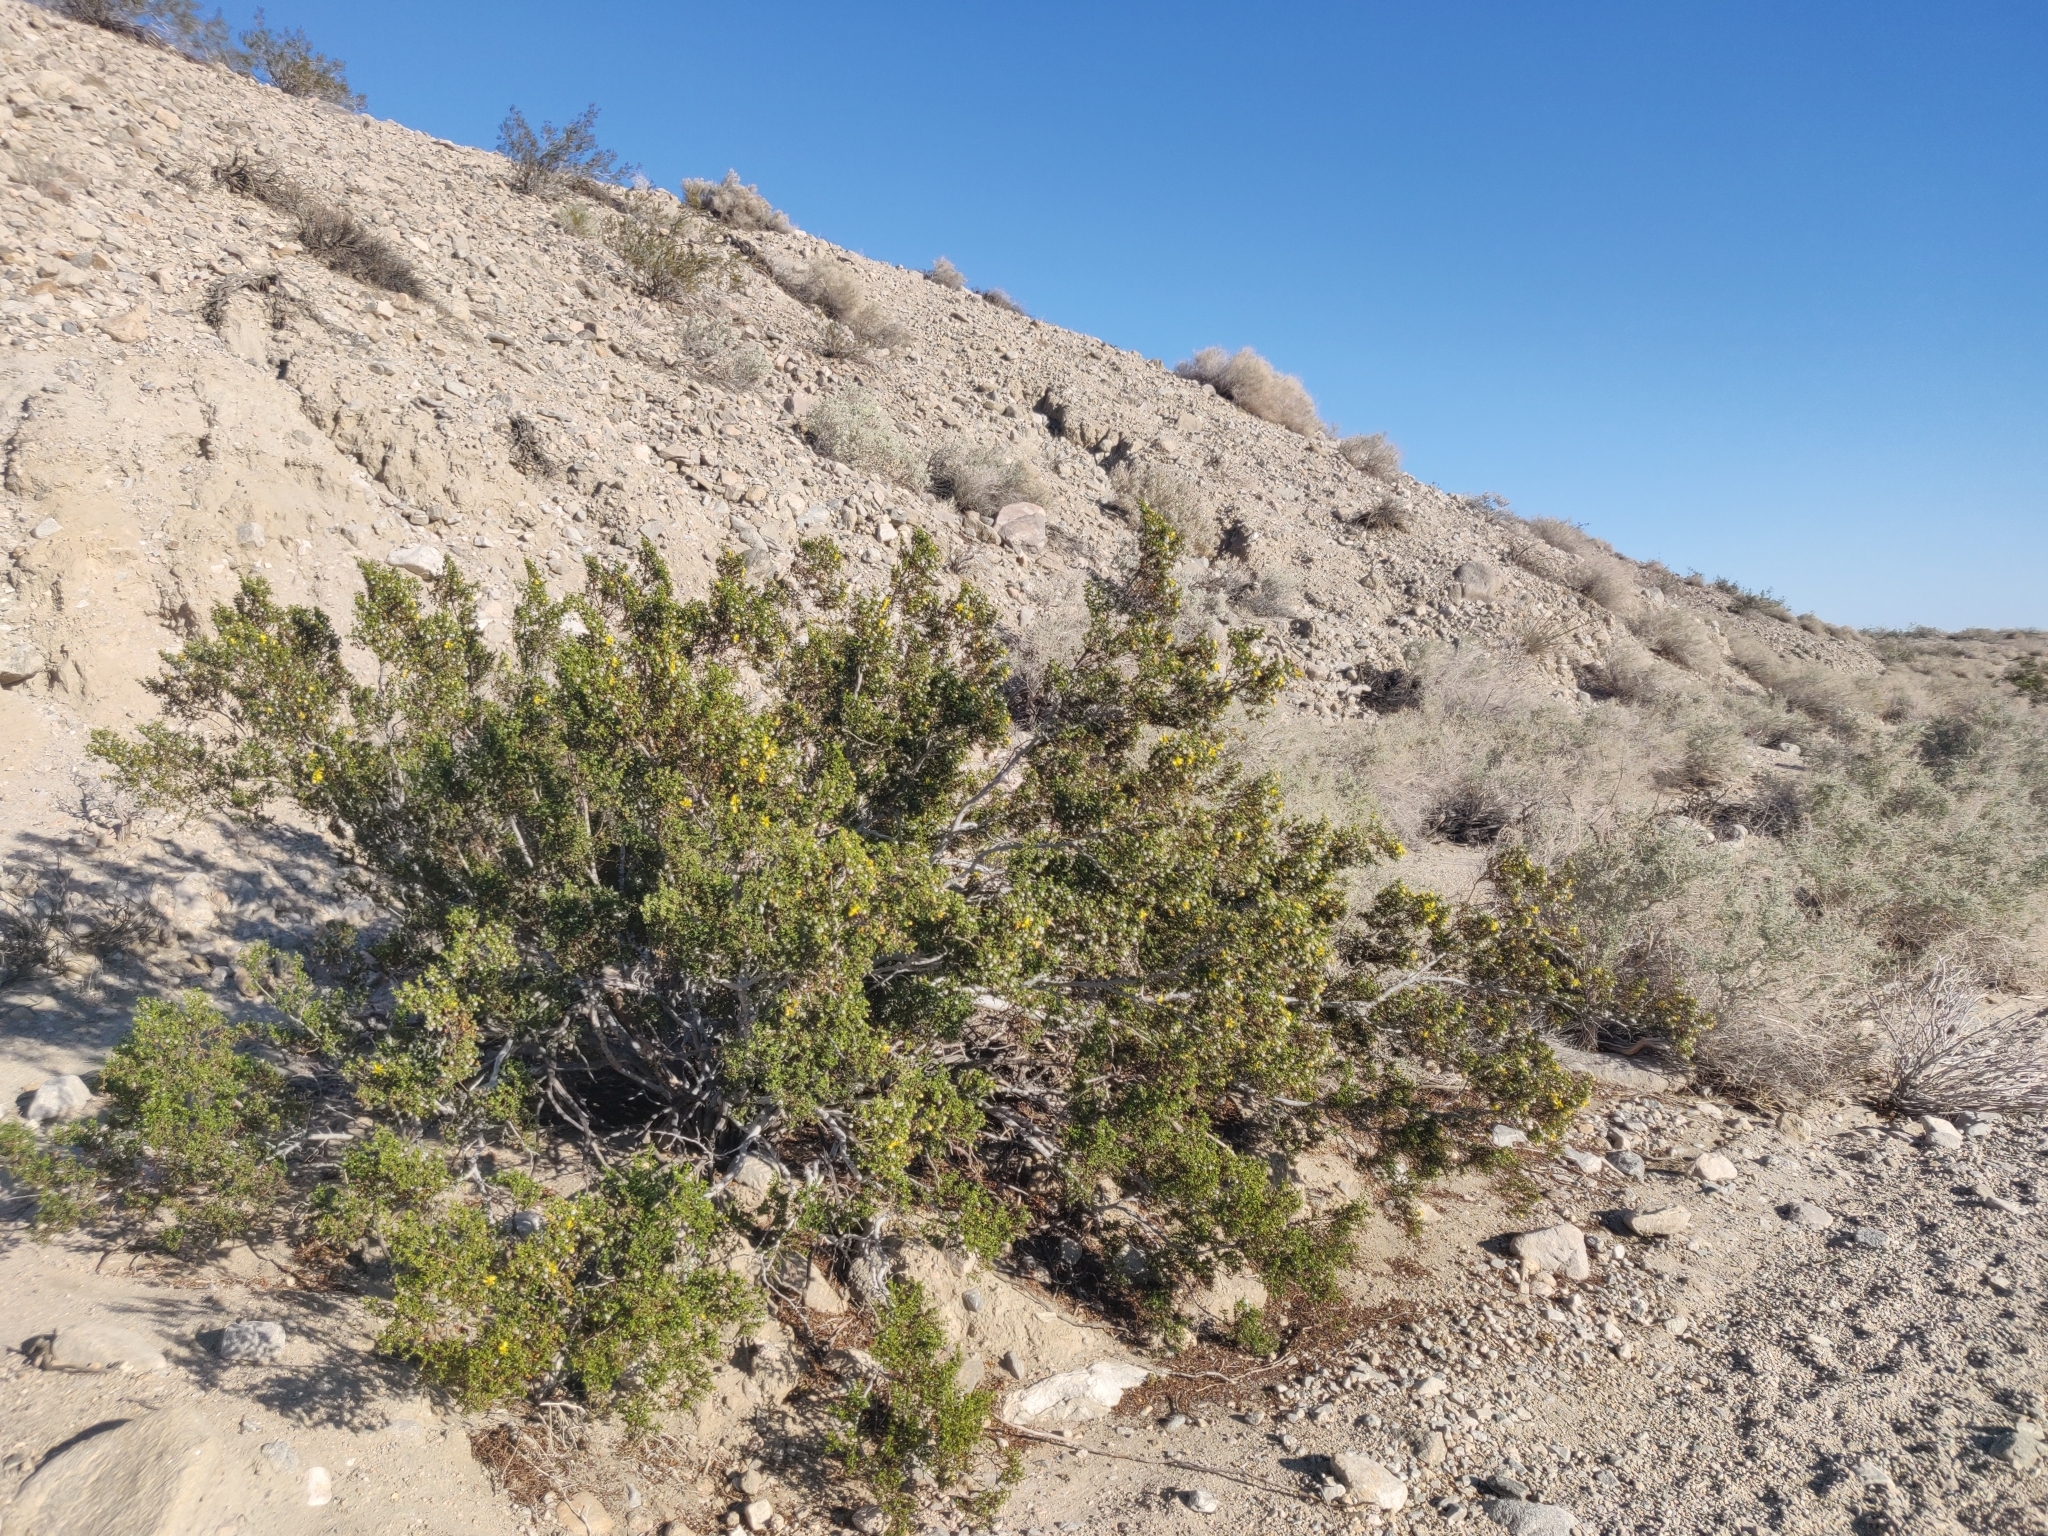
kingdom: Plantae
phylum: Tracheophyta
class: Magnoliopsida
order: Zygophyllales
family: Zygophyllaceae
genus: Larrea
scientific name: Larrea tridentata
